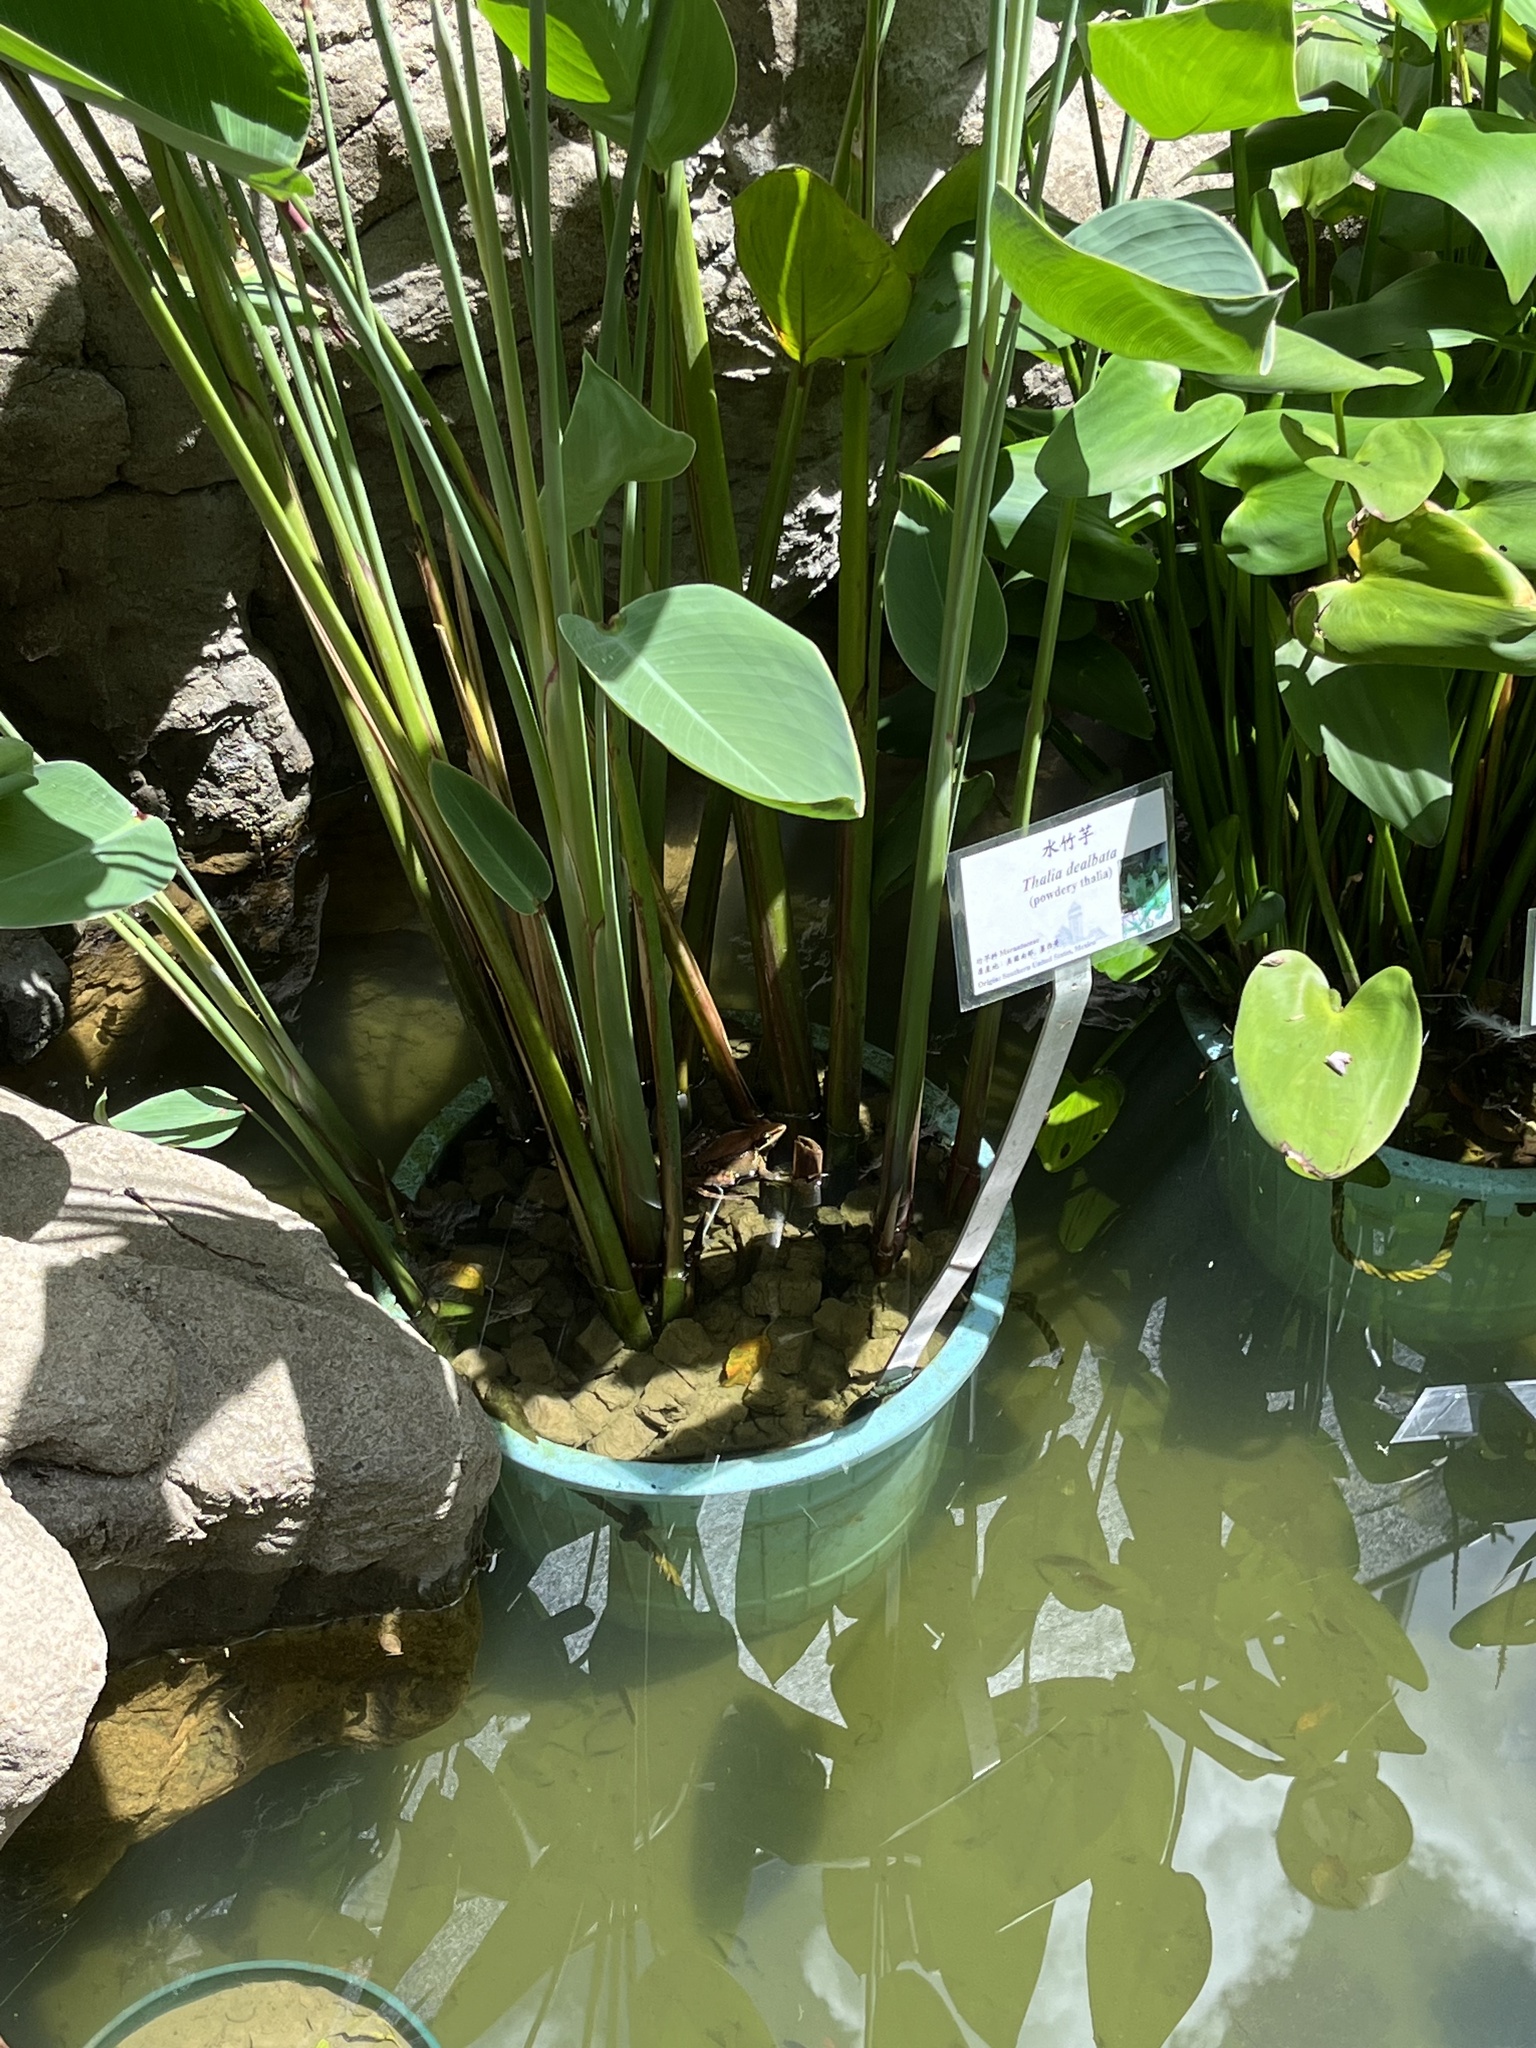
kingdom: Animalia
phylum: Chordata
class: Amphibia
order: Anura
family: Ranidae
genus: Sylvirana
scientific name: Sylvirana guentheri
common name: Guenther's amoy frog
